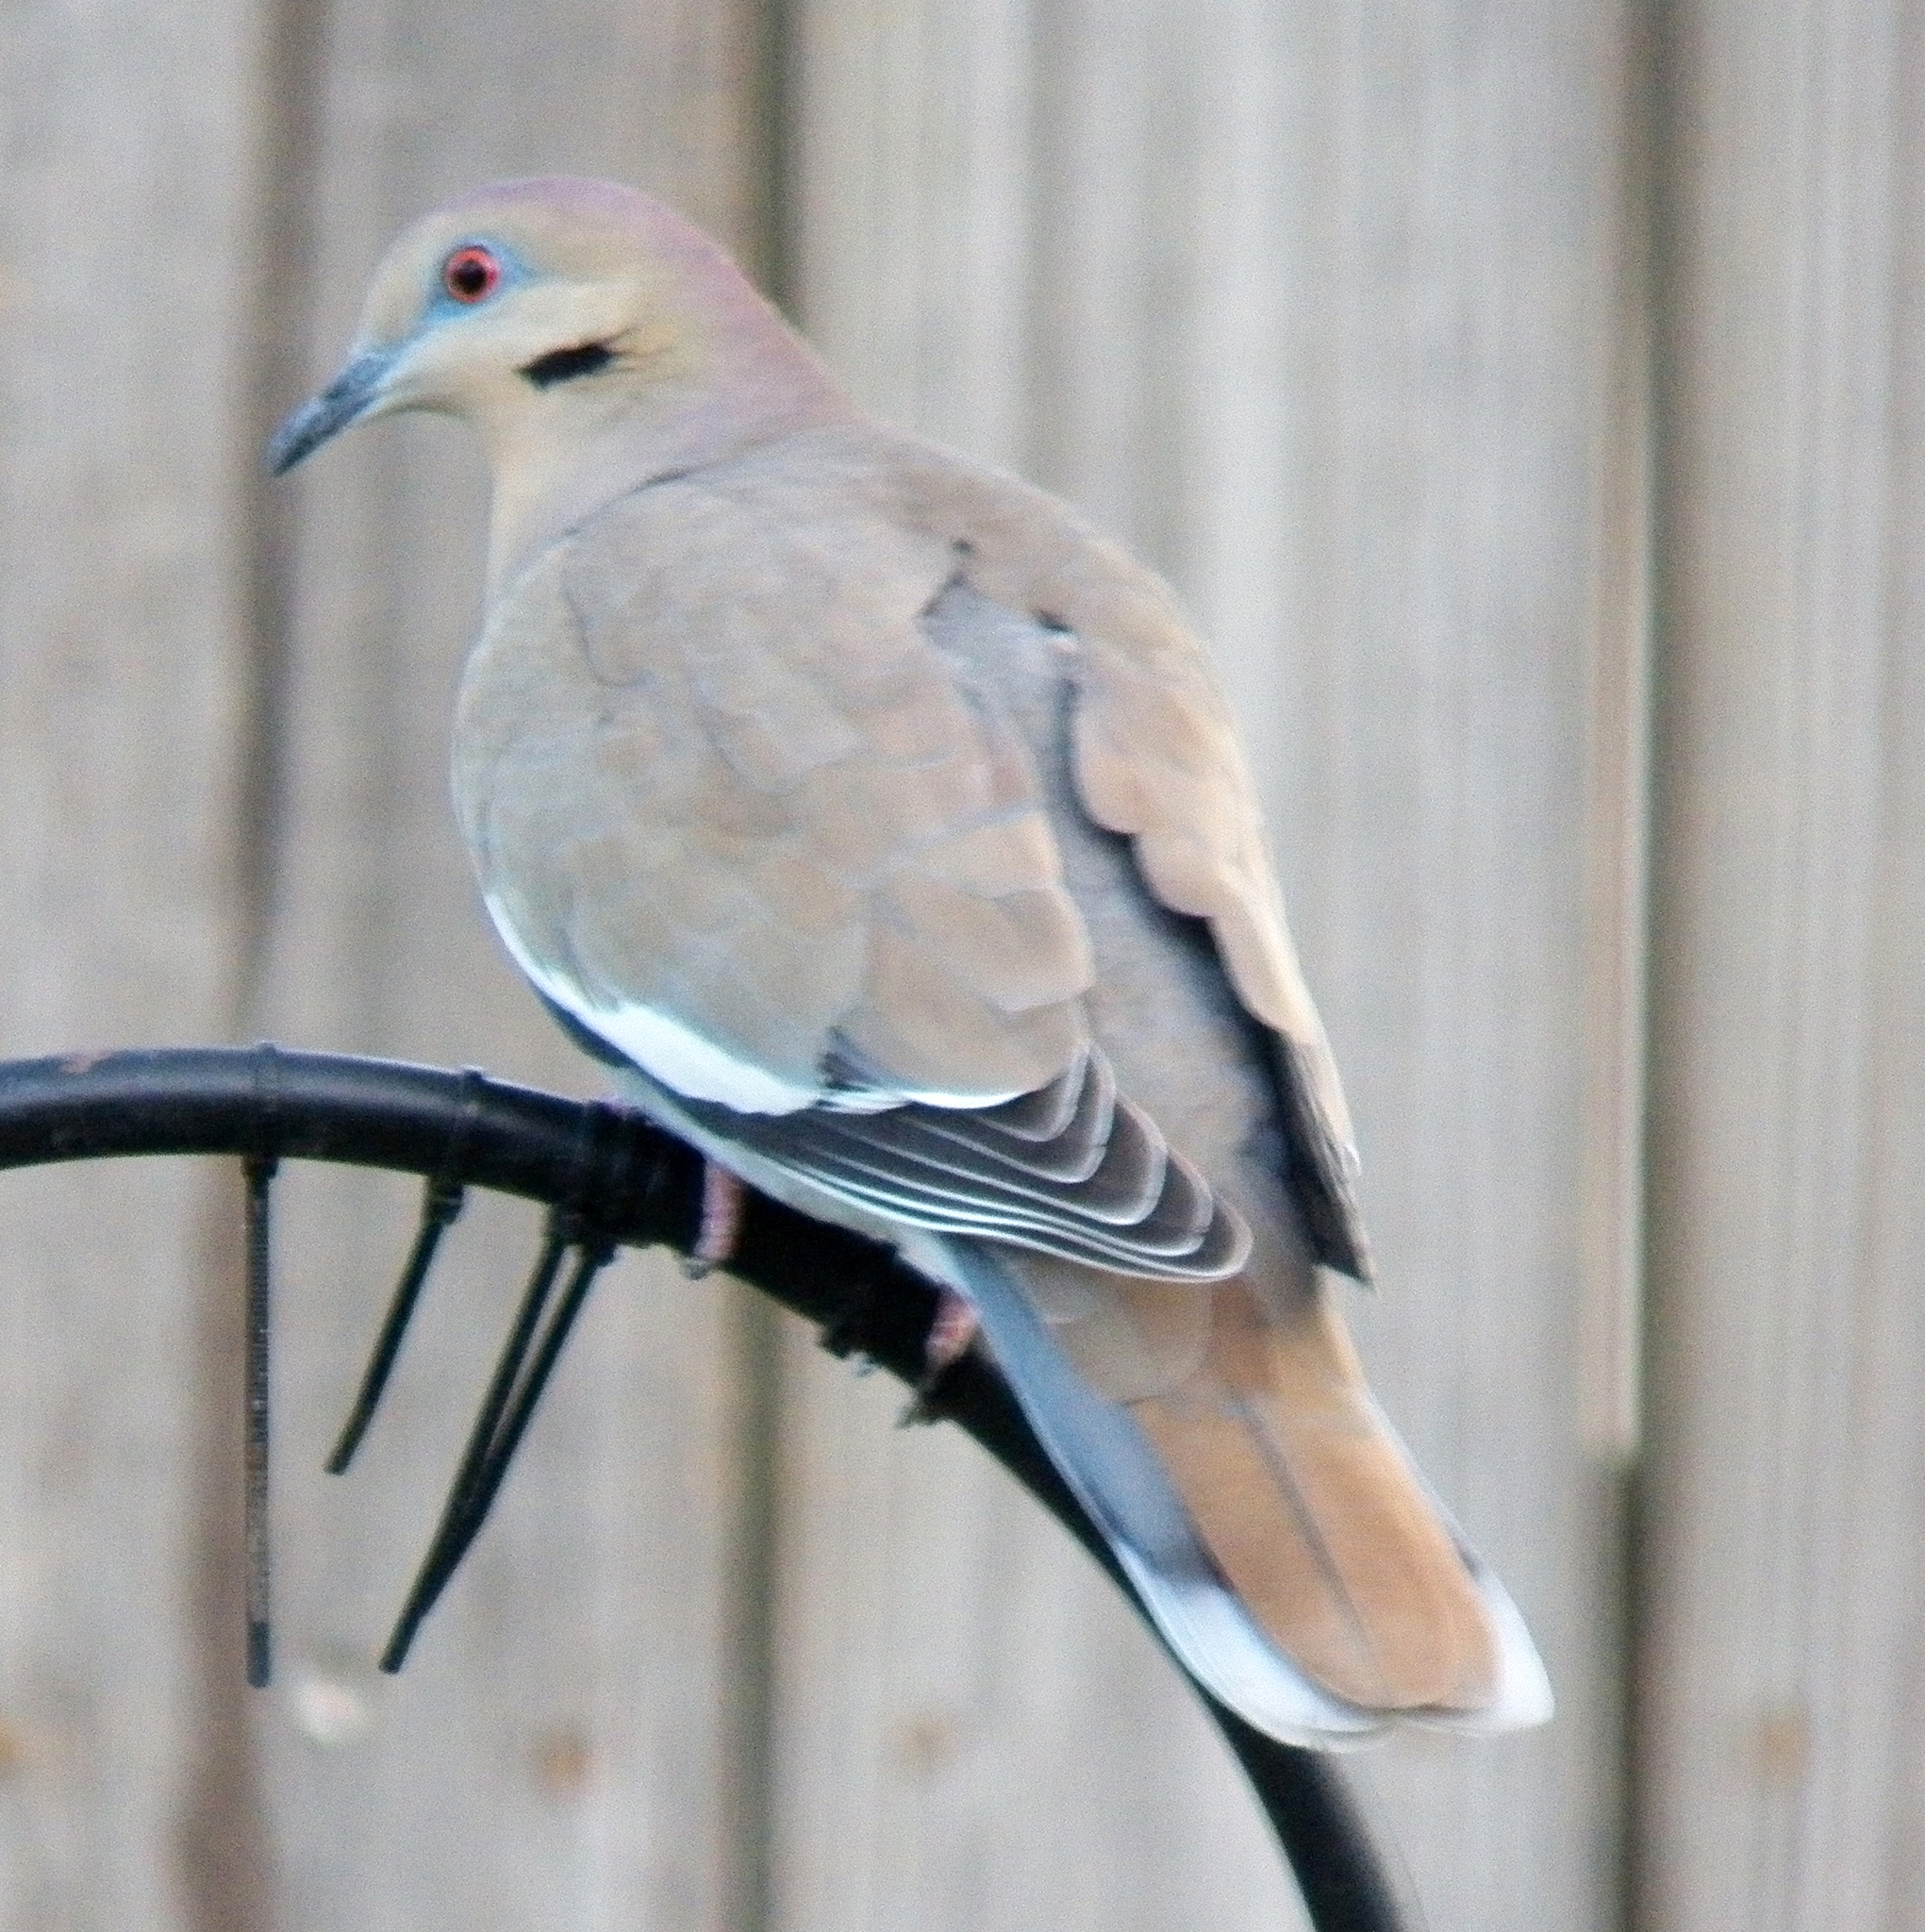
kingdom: Animalia
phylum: Chordata
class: Aves
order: Columbiformes
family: Columbidae
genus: Zenaida
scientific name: Zenaida asiatica
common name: White-winged dove
